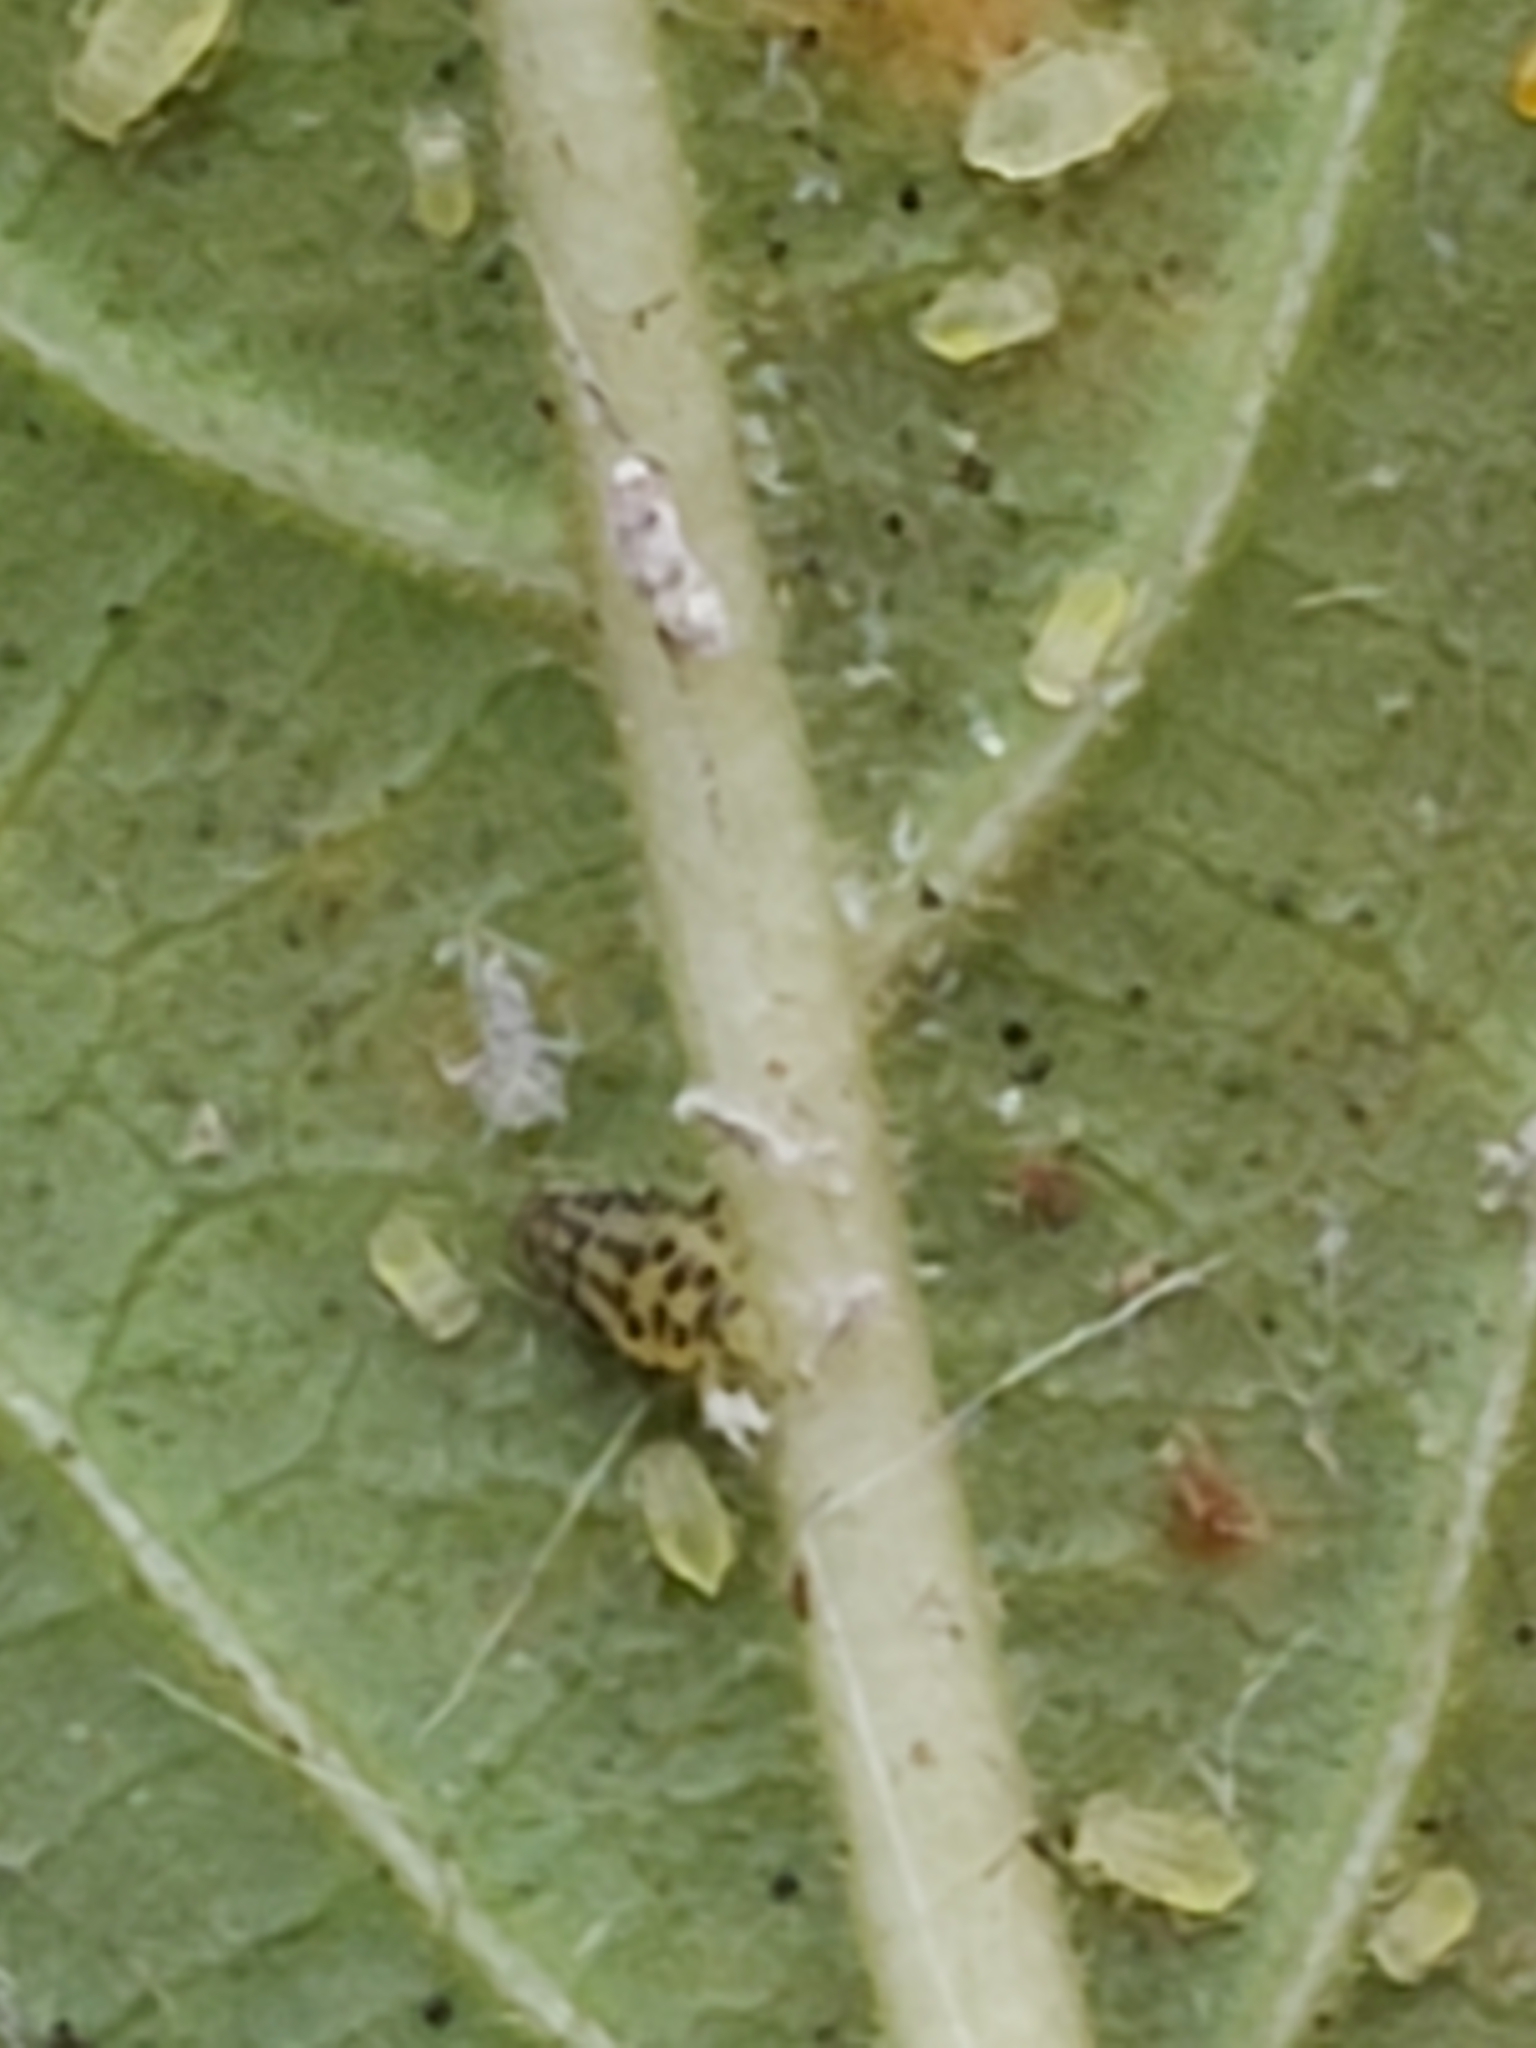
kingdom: Animalia
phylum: Arthropoda
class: Insecta
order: Hemiptera
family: Aphididae
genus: Sarucallis
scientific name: Sarucallis kahawaluokalani
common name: Crapemyrtle aphid
